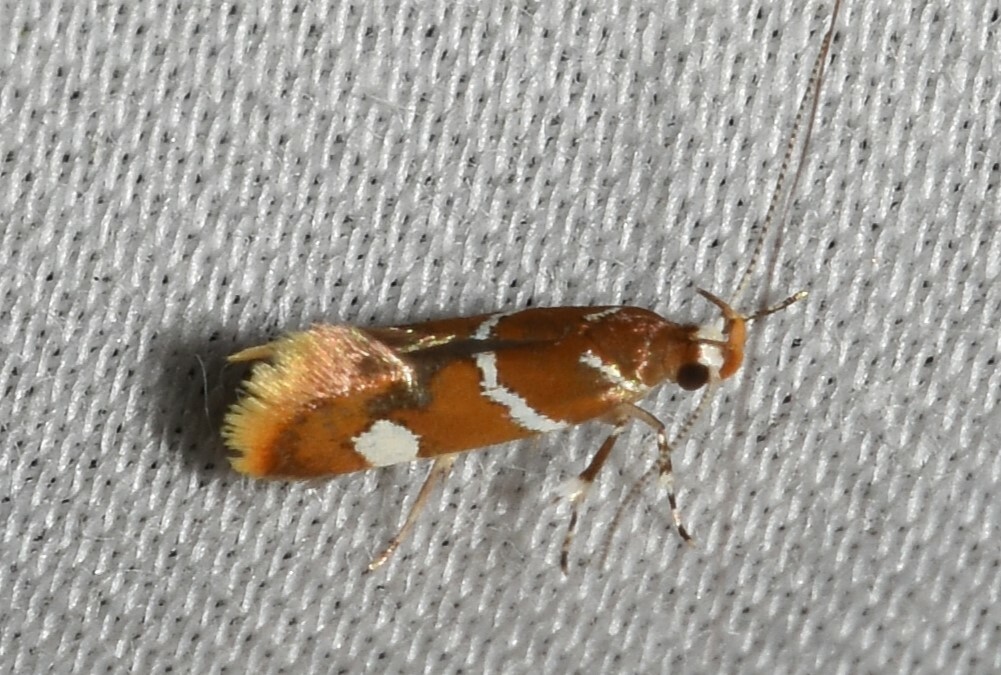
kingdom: Animalia
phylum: Arthropoda
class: Insecta
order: Lepidoptera
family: Oecophoridae
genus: Promalactis
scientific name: Promalactis suzukiella
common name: Moth
